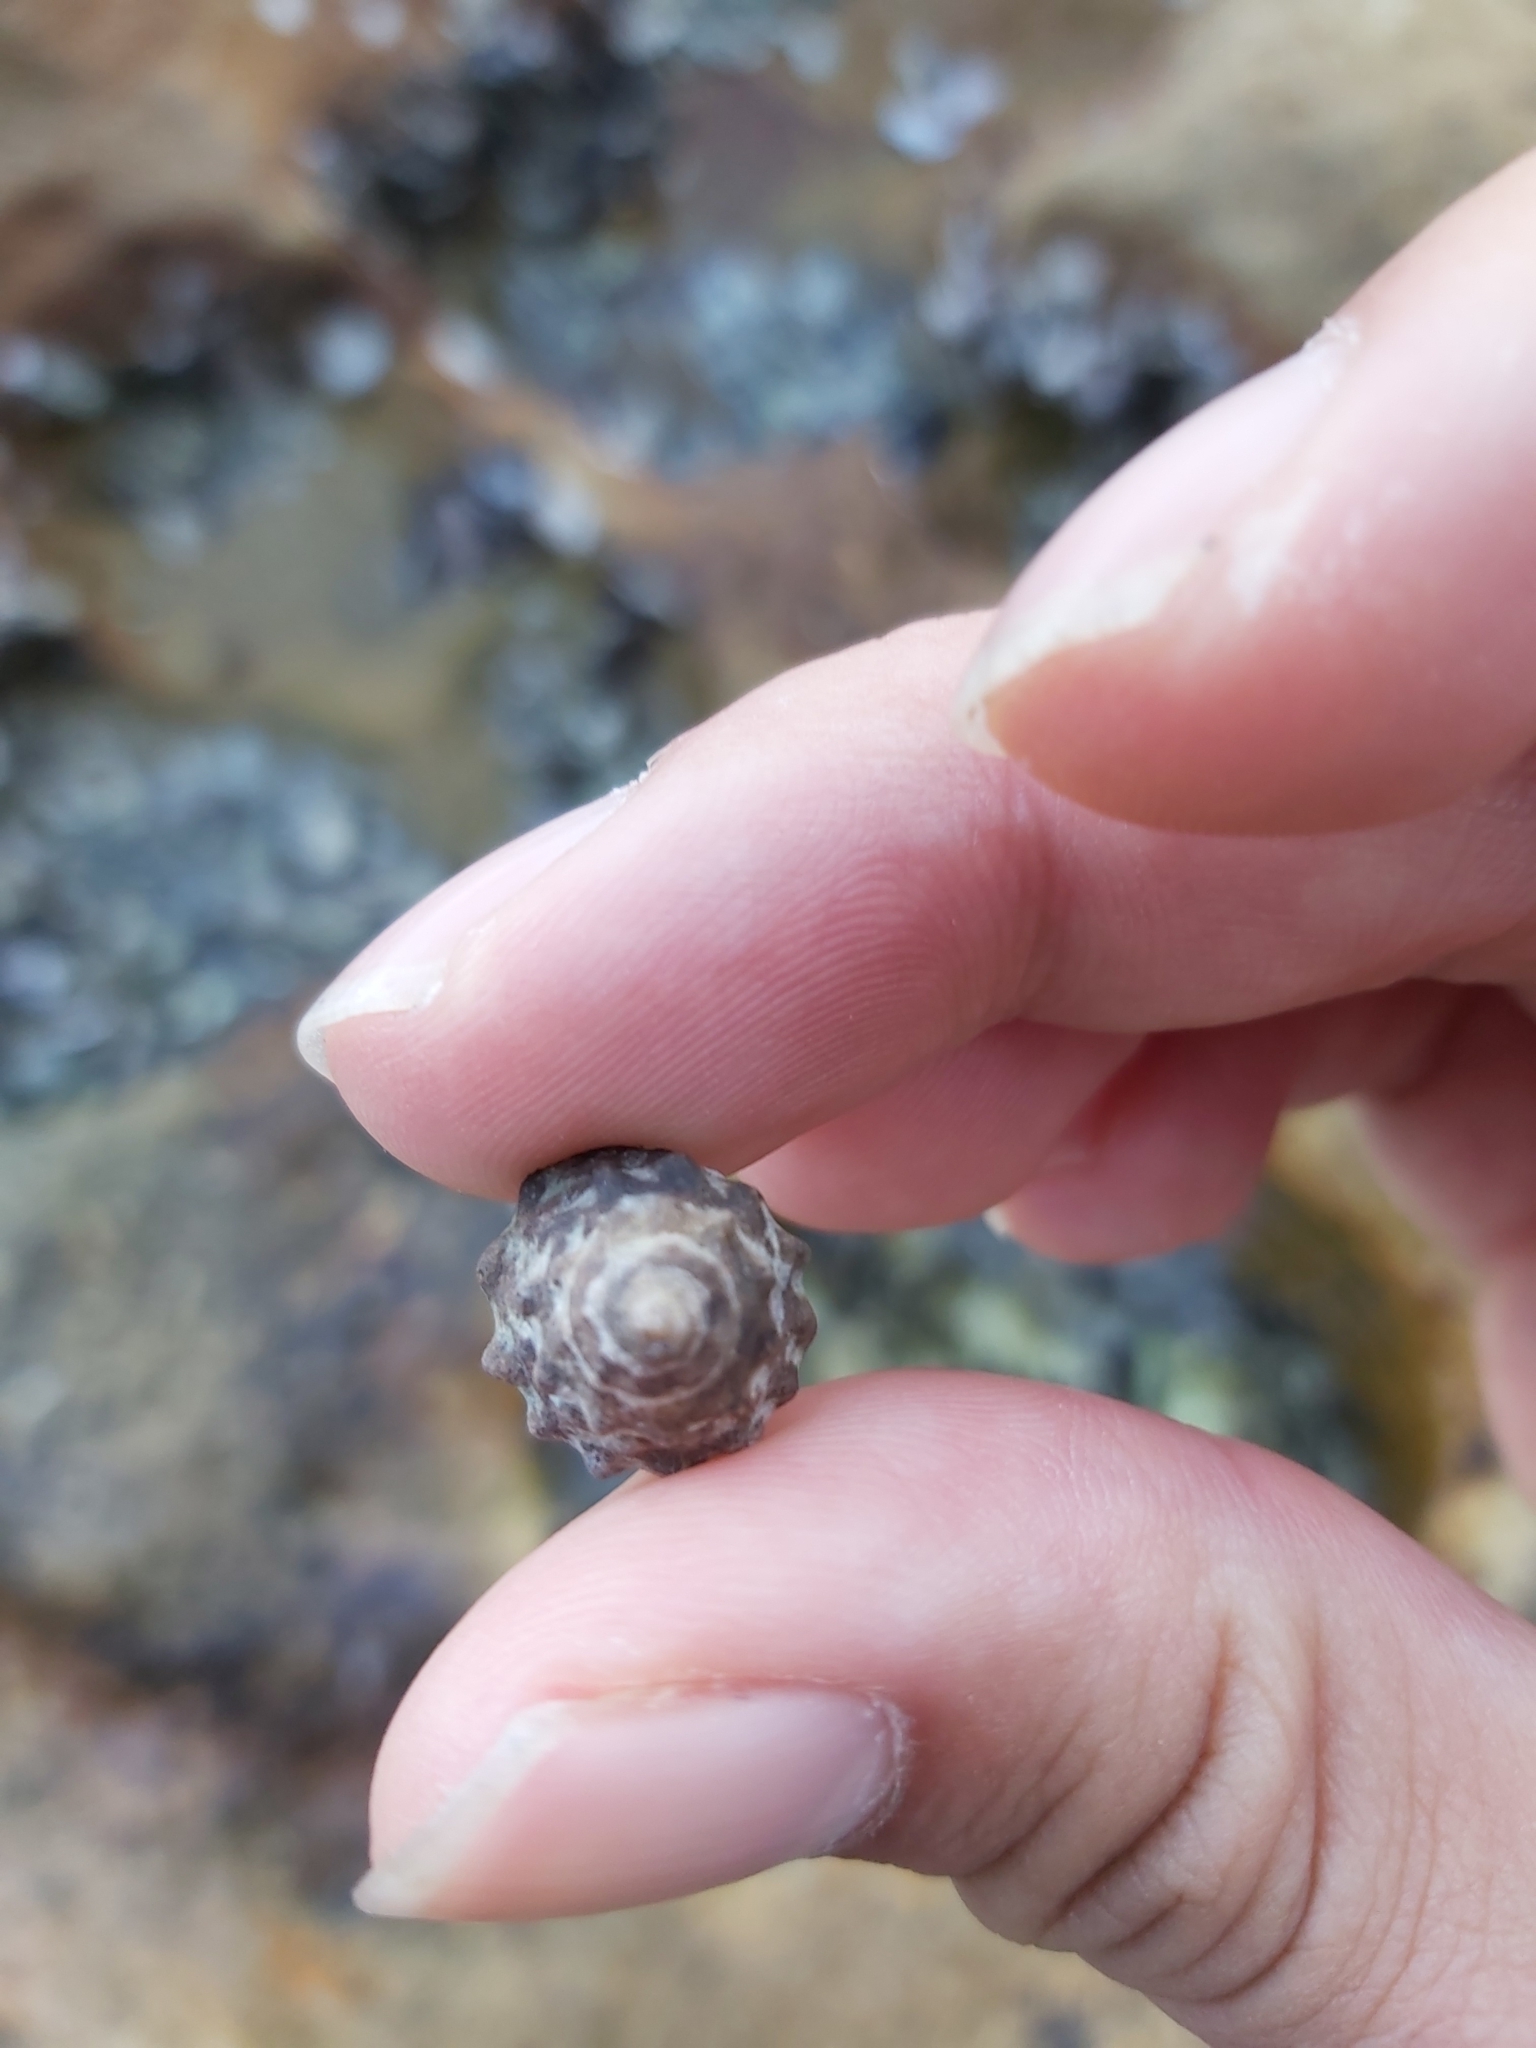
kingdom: Animalia
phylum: Mollusca
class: Gastropoda
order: Littorinimorpha
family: Littorinidae
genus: Bembicium
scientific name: Bembicium auratum
